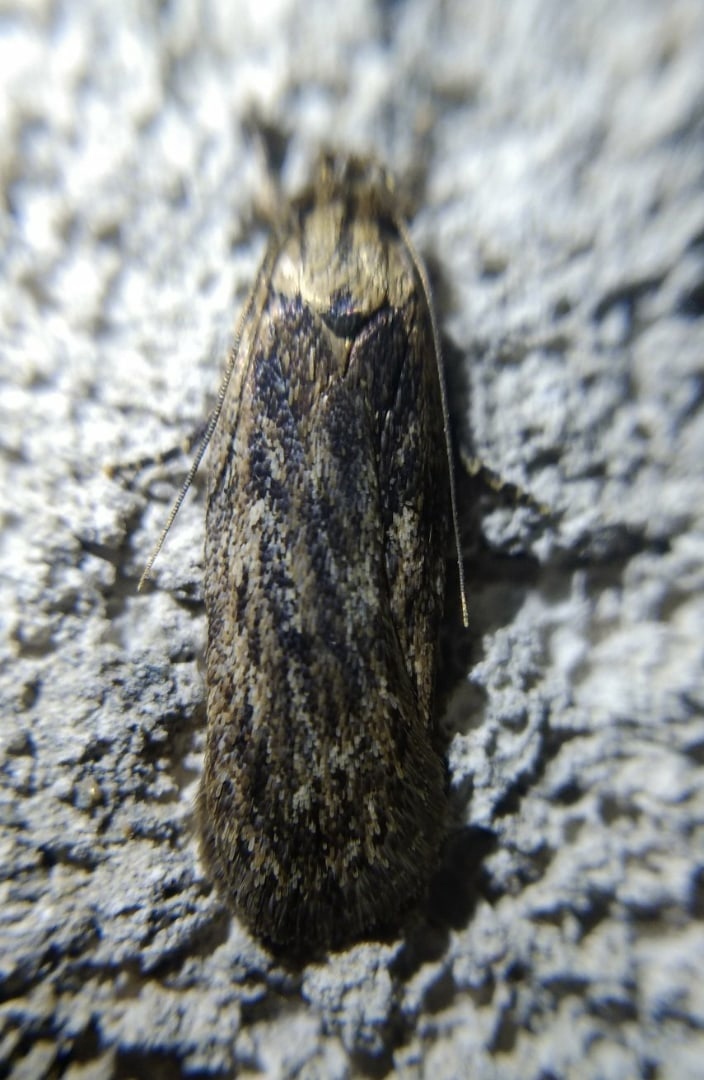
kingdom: Animalia
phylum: Arthropoda
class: Insecta
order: Lepidoptera
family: Depressariidae
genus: Depressaria
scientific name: Depressaria radiella
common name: Parsnip moth
